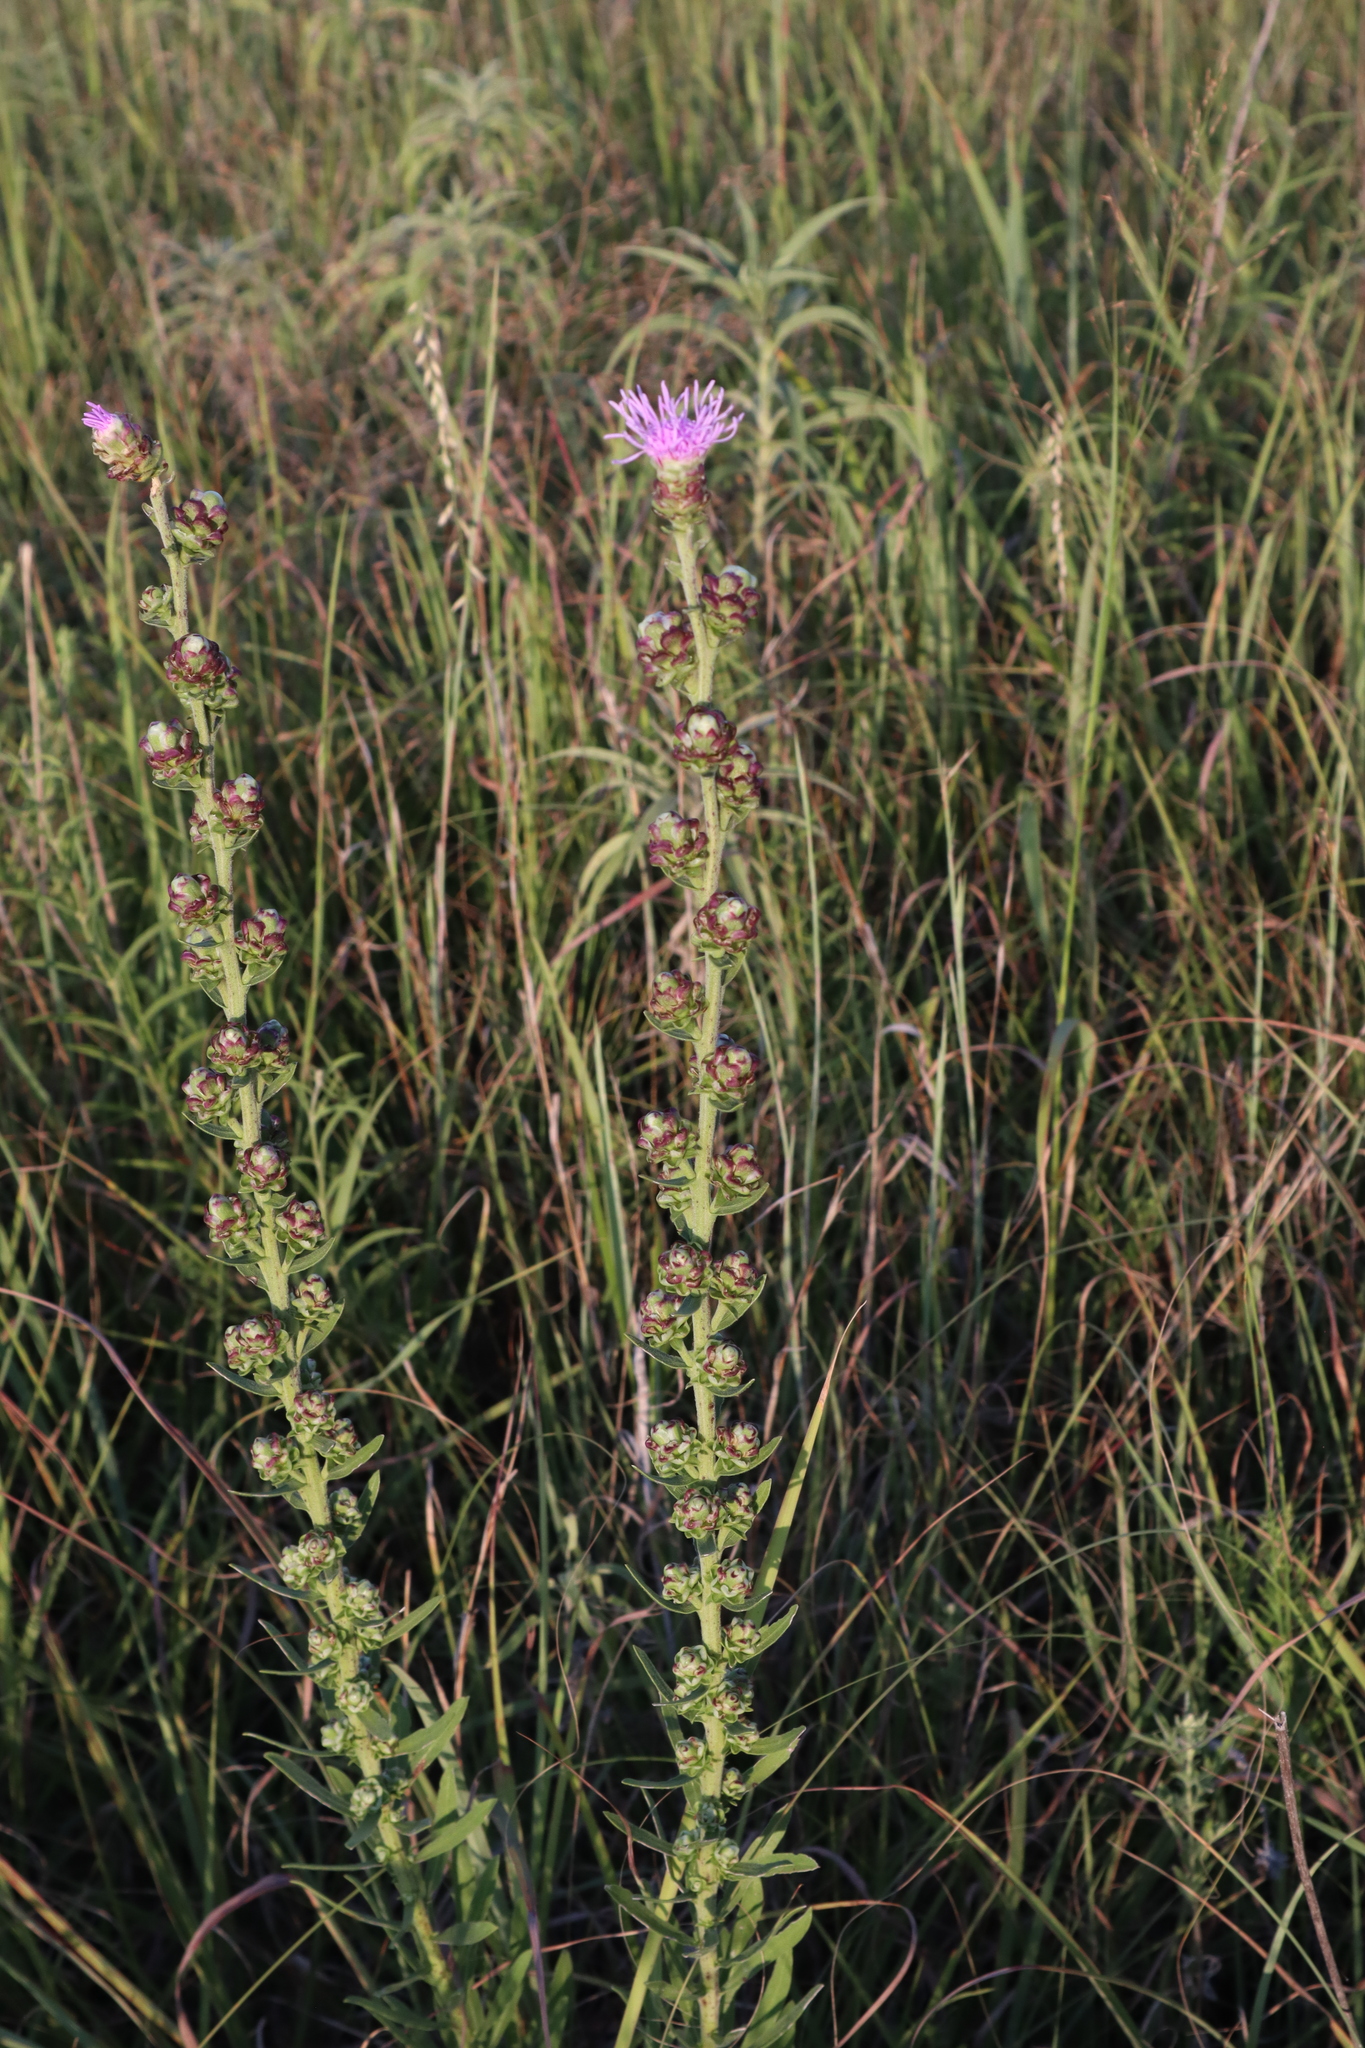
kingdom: Plantae
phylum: Tracheophyta
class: Magnoliopsida
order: Asterales
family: Asteraceae
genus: Liatris
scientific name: Liatris aspera
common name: Lacerate blazing-star
